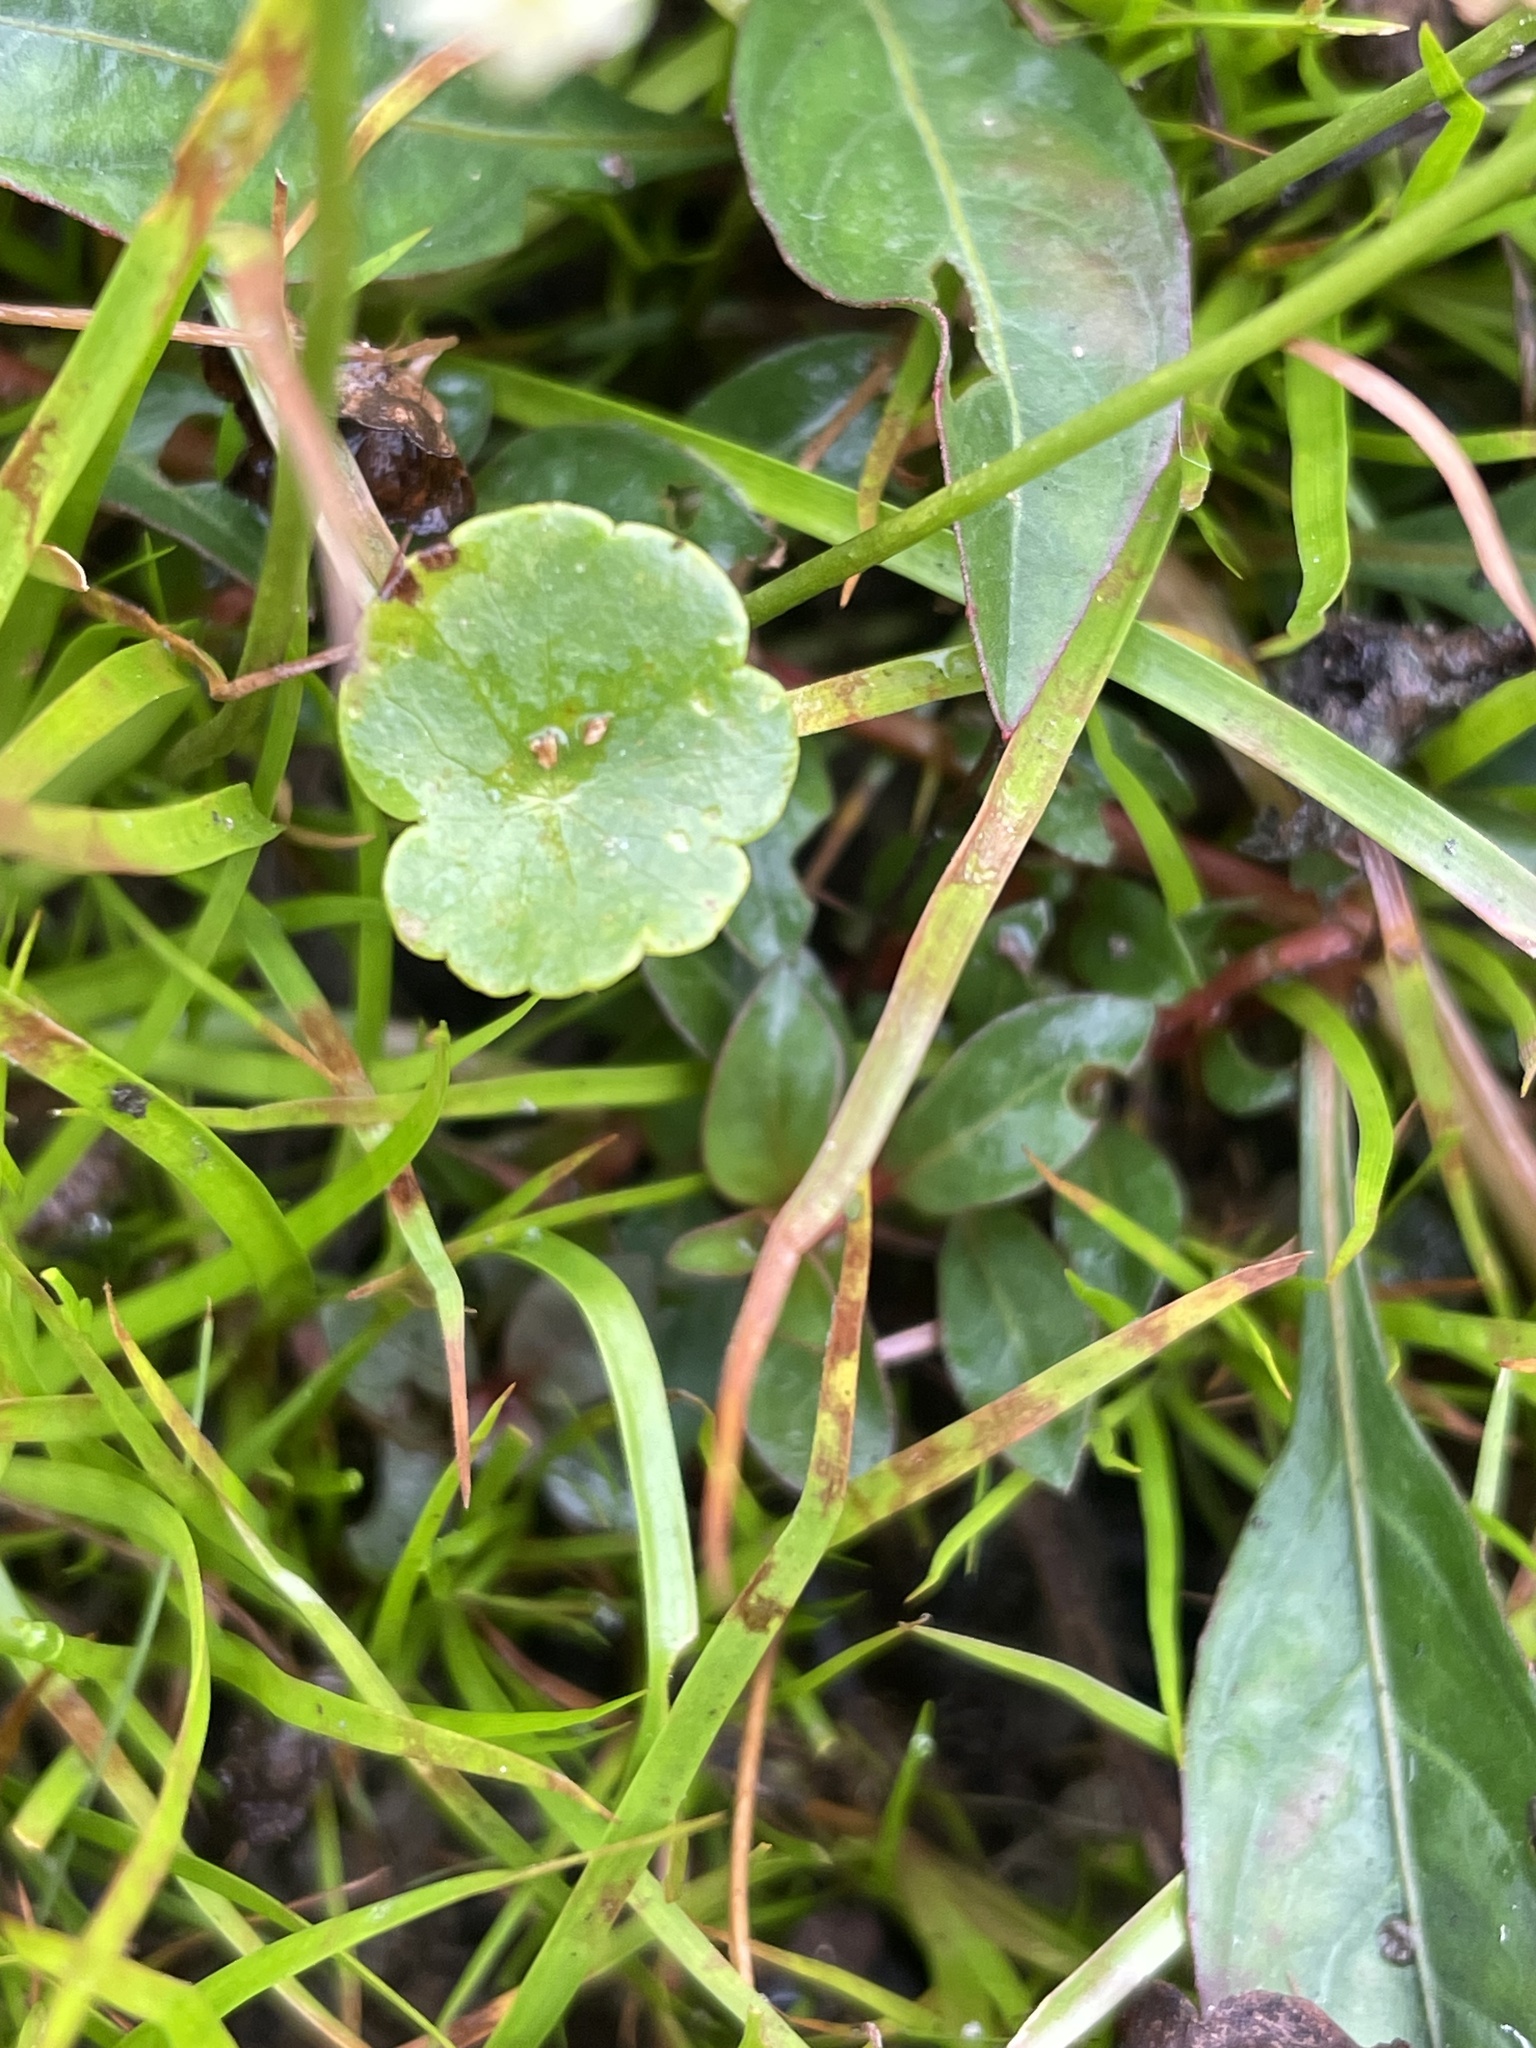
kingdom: Plantae
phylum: Tracheophyta
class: Magnoliopsida
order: Apiales
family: Araliaceae
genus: Hydrocotyle
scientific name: Hydrocotyle umbellata
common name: Water pennywort
